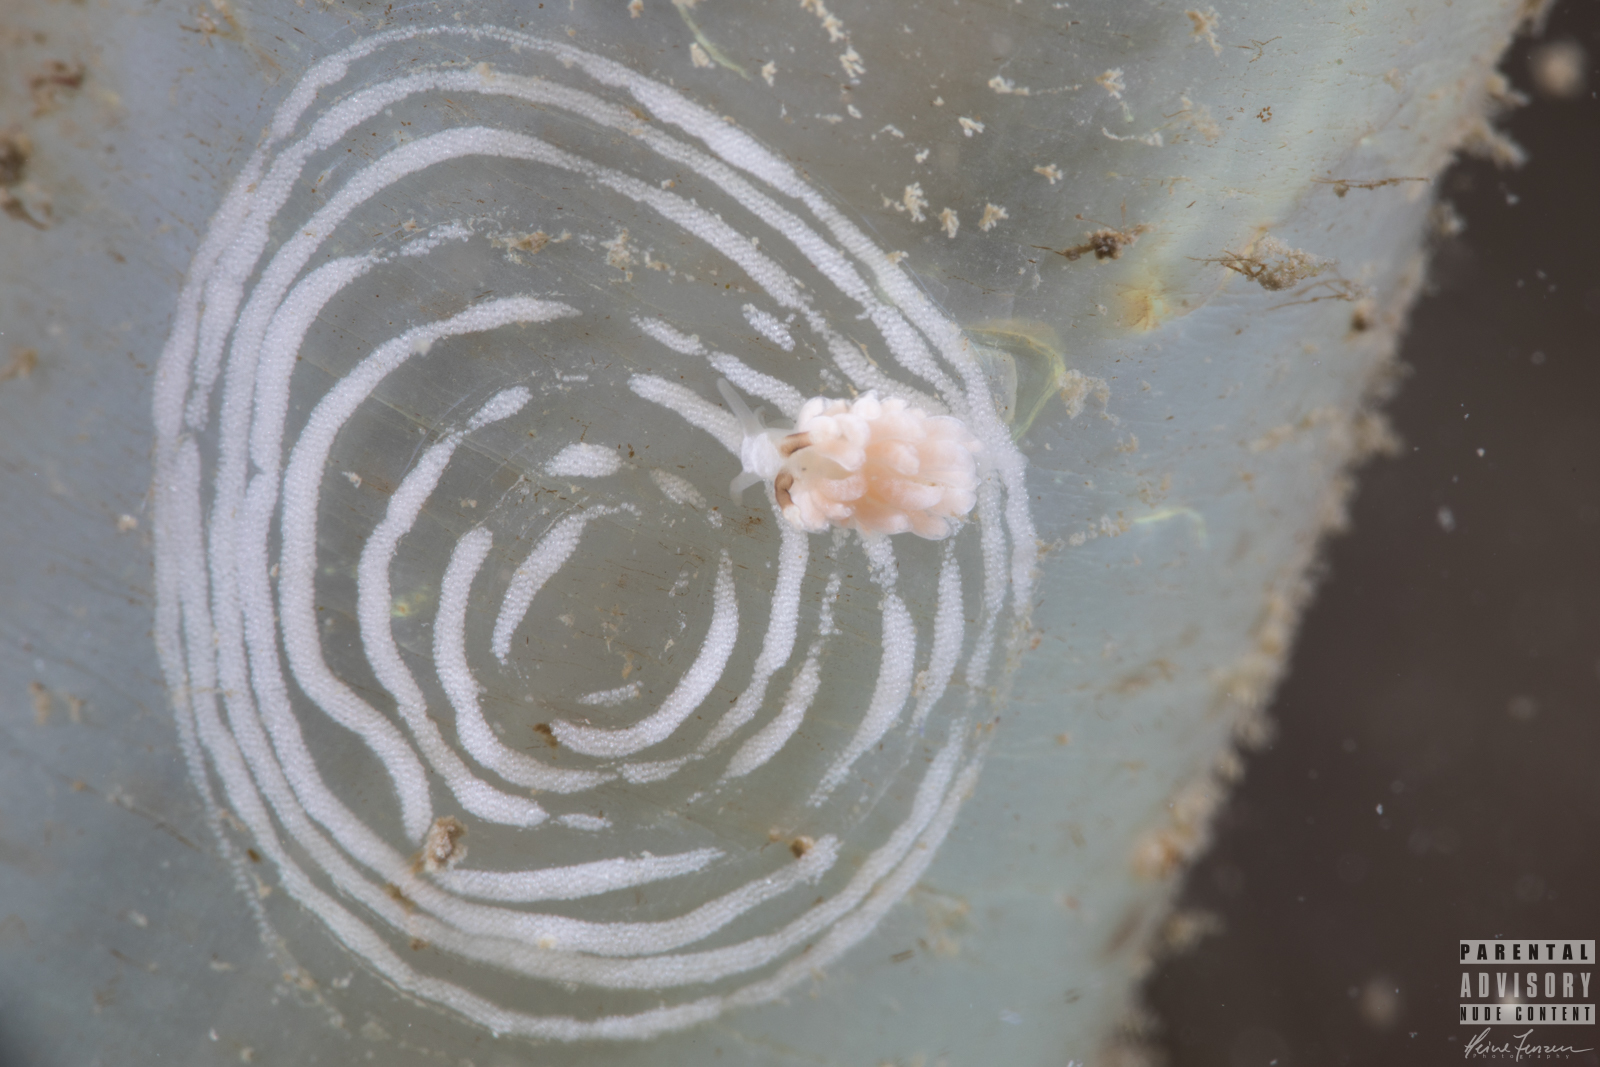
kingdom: Animalia
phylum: Mollusca
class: Gastropoda
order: Nudibranchia
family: Facelinidae
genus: Favorinus
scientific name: Favorinus branchialis
